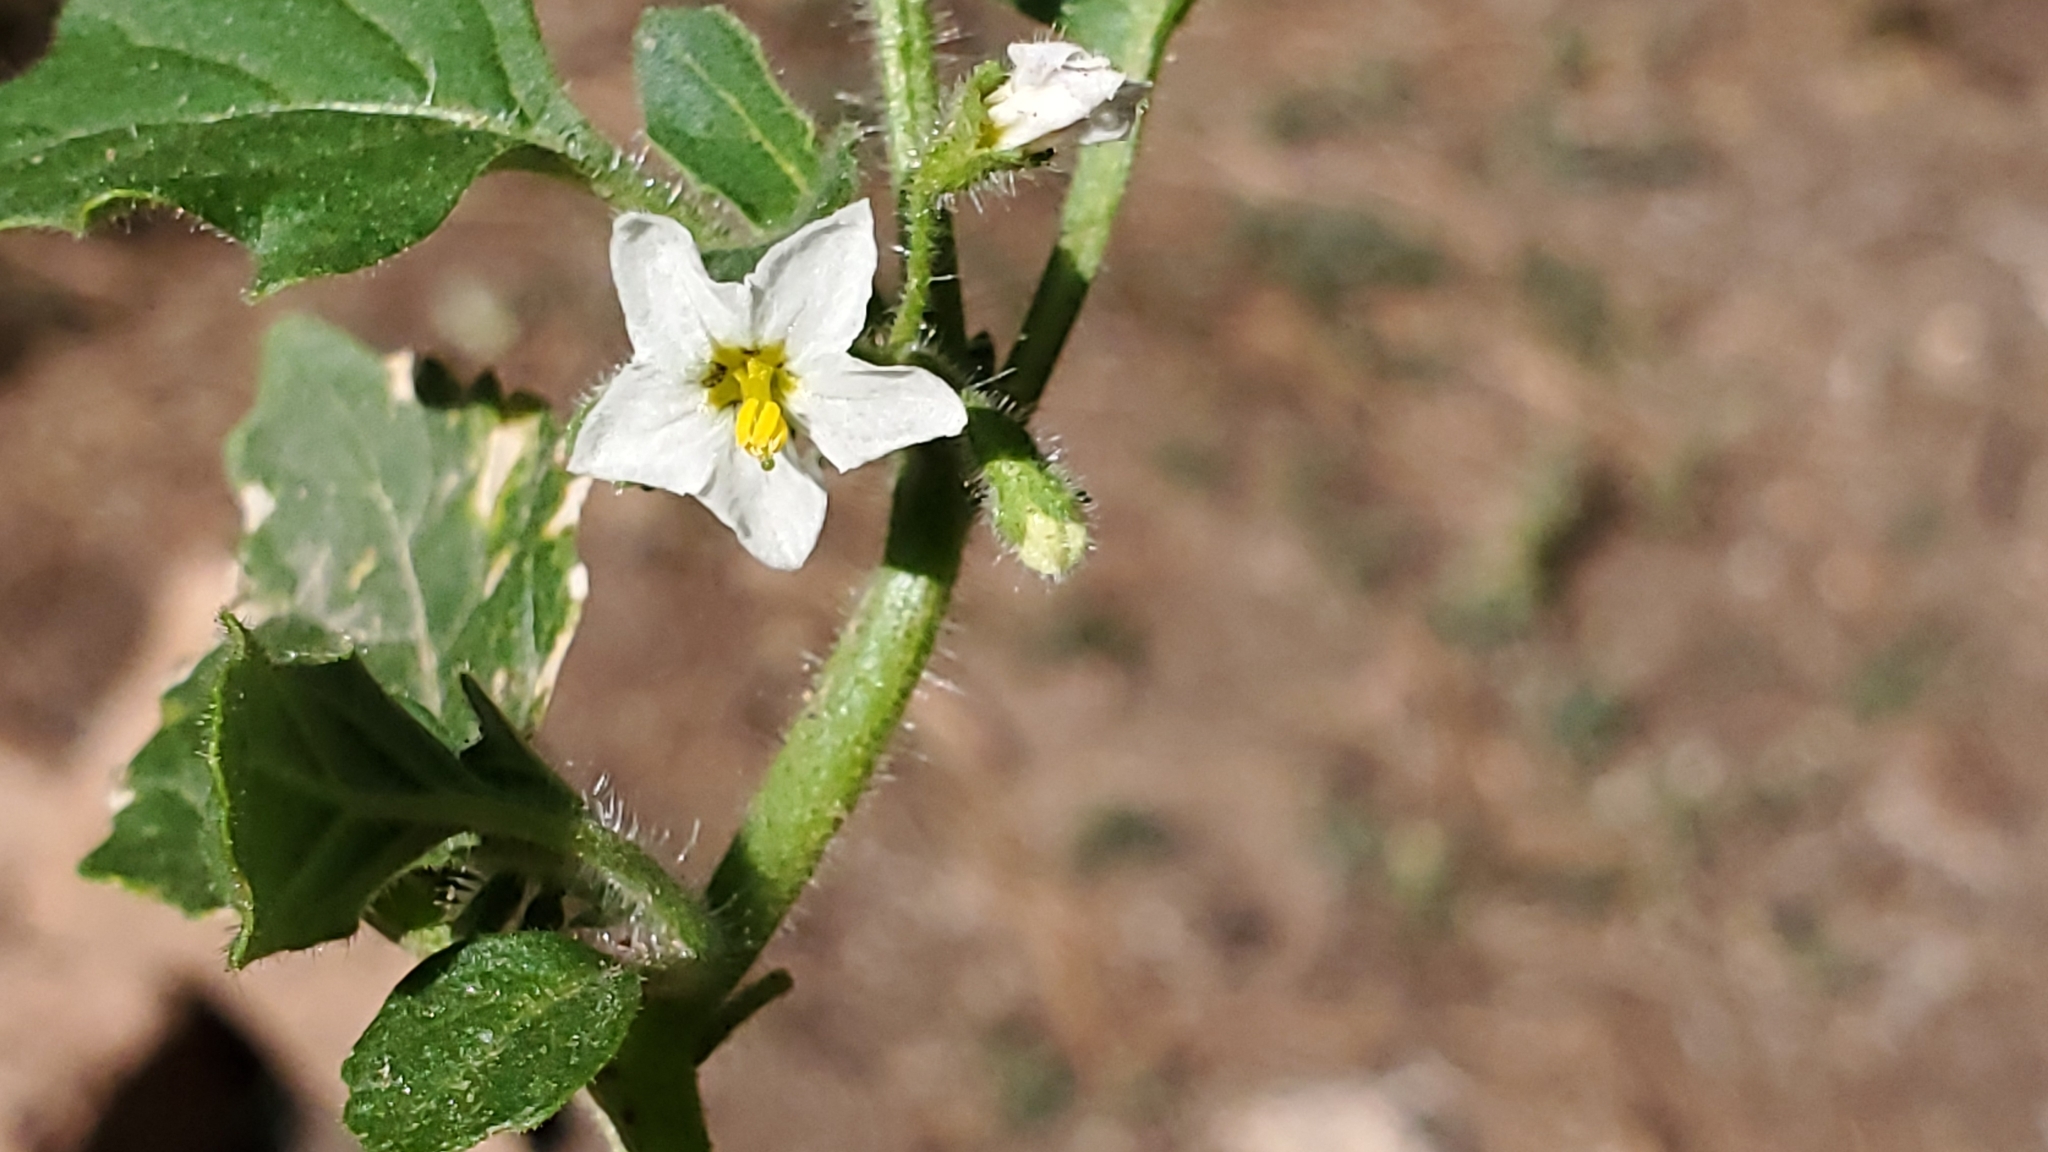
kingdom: Plantae
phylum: Tracheophyta
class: Magnoliopsida
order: Solanales
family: Solanaceae
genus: Solanum
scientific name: Solanum nitidibaccatum
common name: Hairy nightshade
